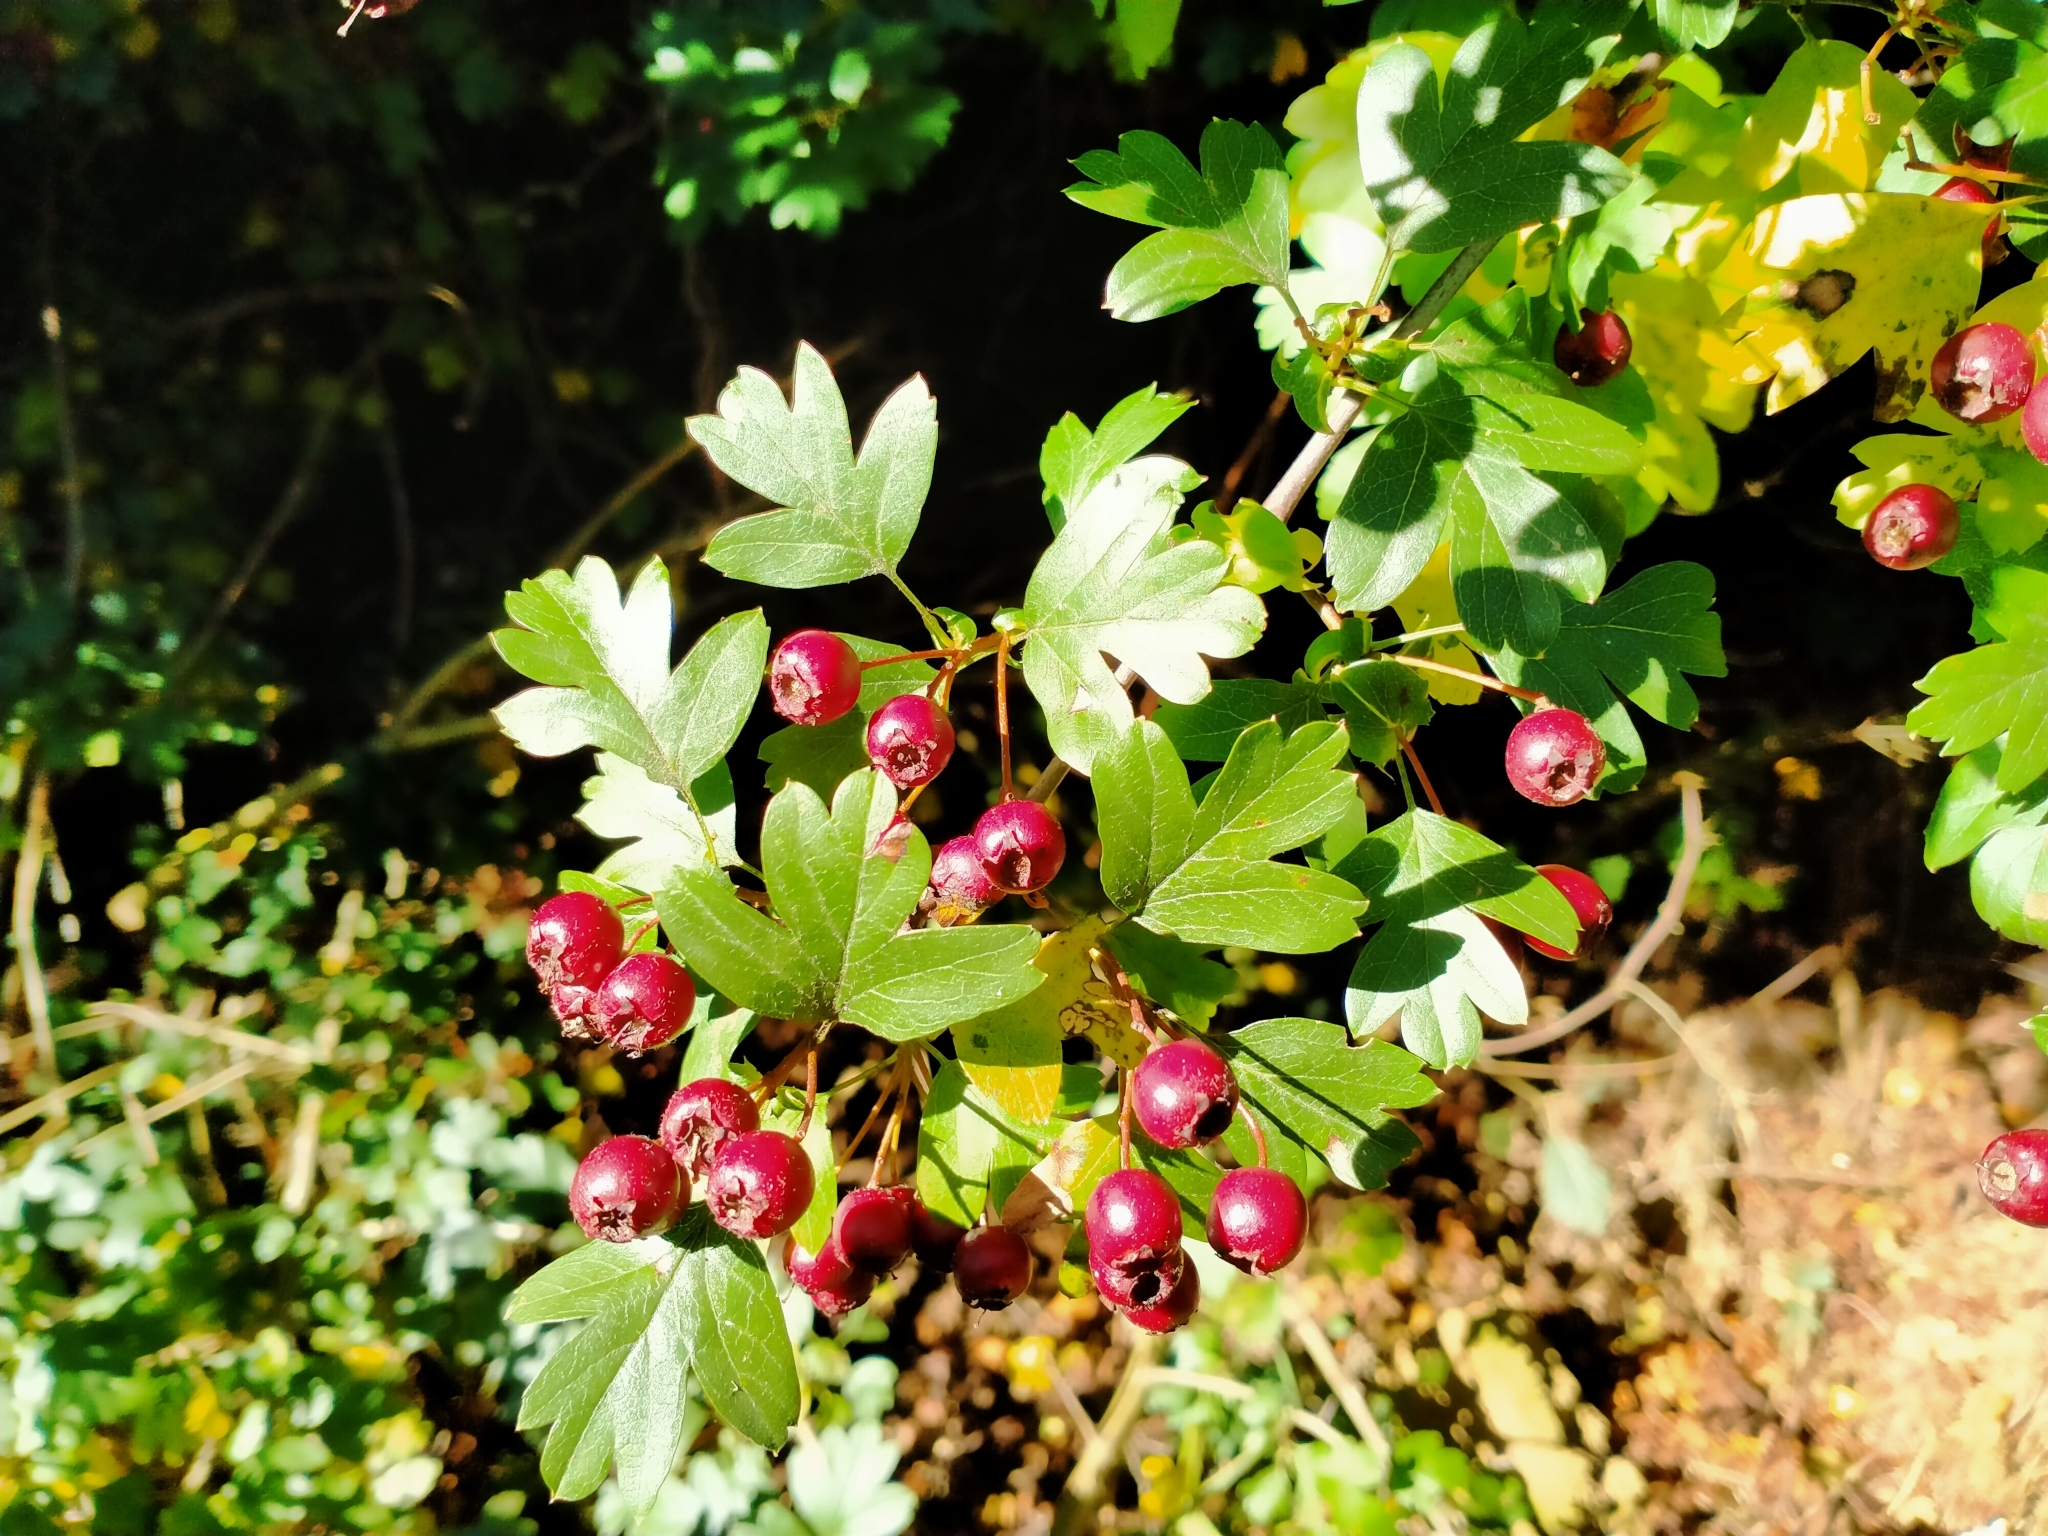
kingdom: Plantae
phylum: Tracheophyta
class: Magnoliopsida
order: Rosales
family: Rosaceae
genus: Crataegus
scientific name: Crataegus monogyna
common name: Hawthorn
